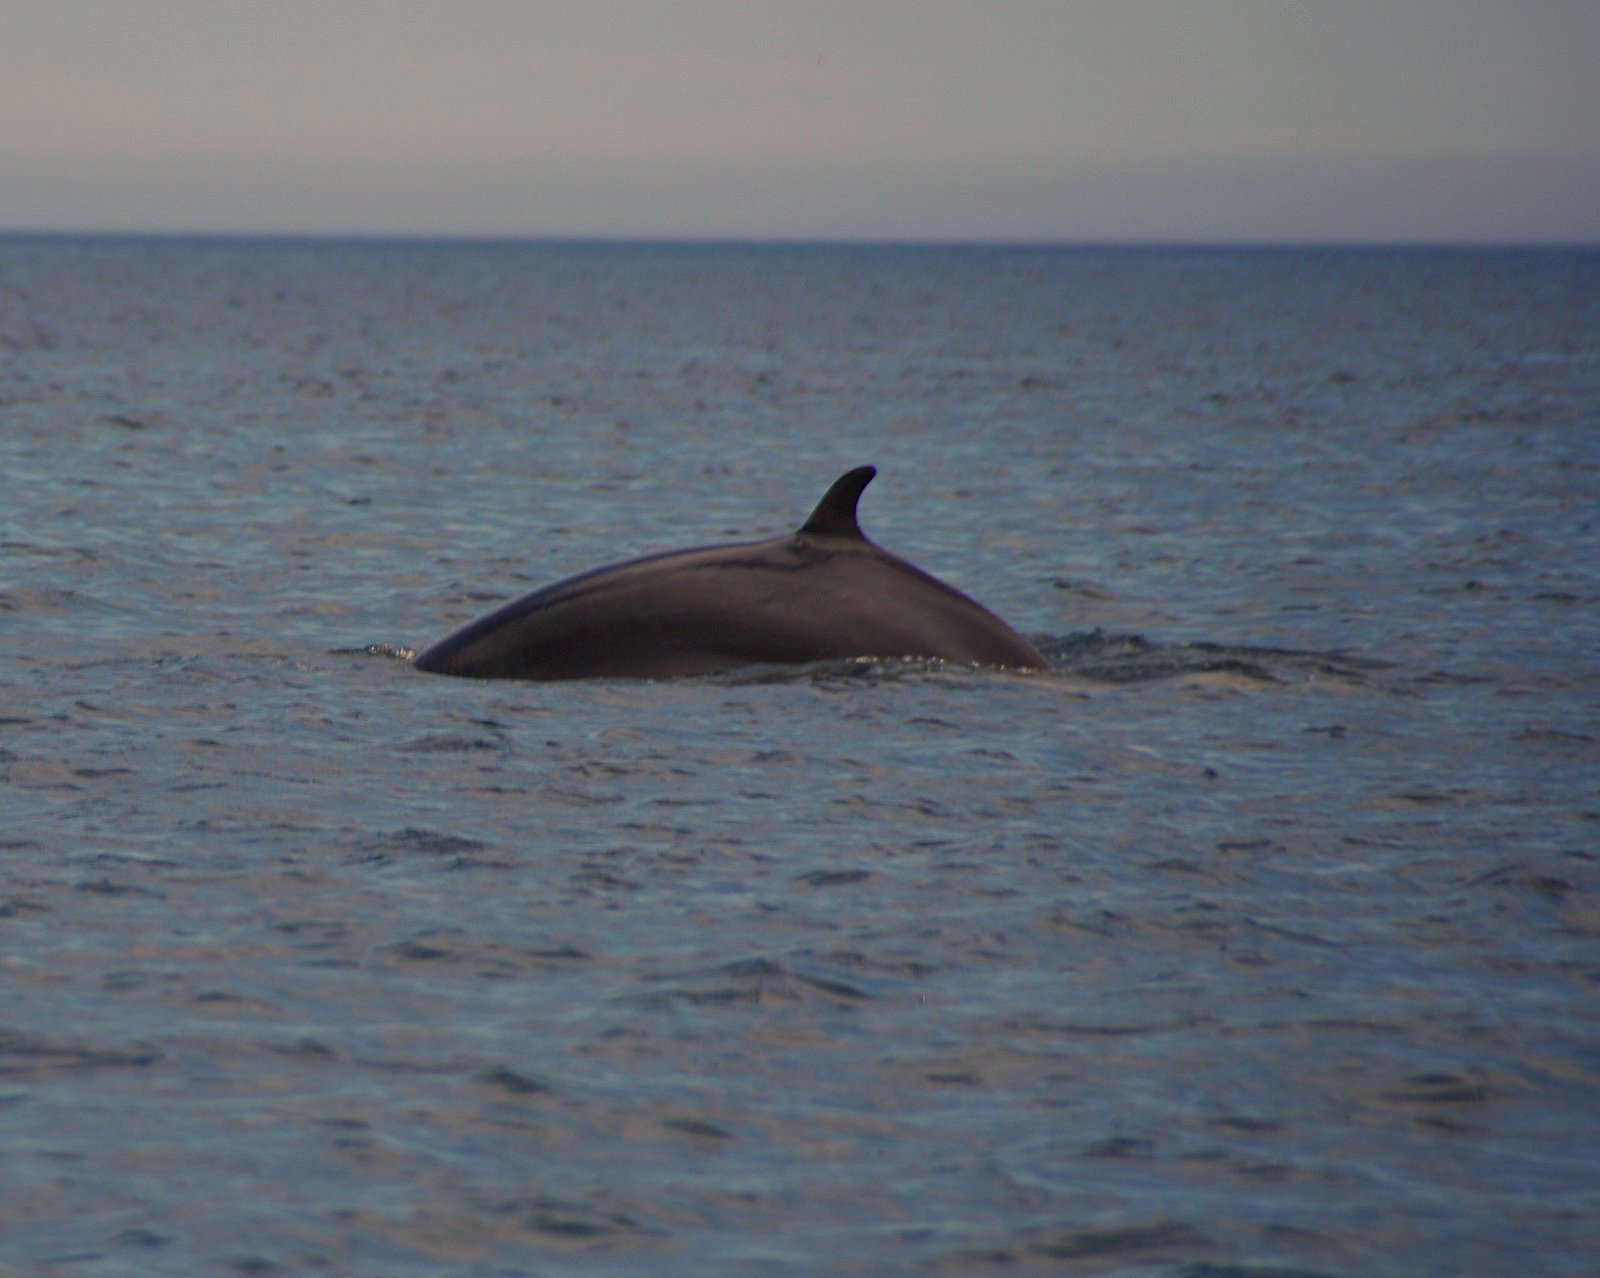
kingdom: Animalia
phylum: Chordata
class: Mammalia
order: Cetacea
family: Balaenopteridae
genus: Balaenoptera
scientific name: Balaenoptera acutorostrata
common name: Common minke whale
